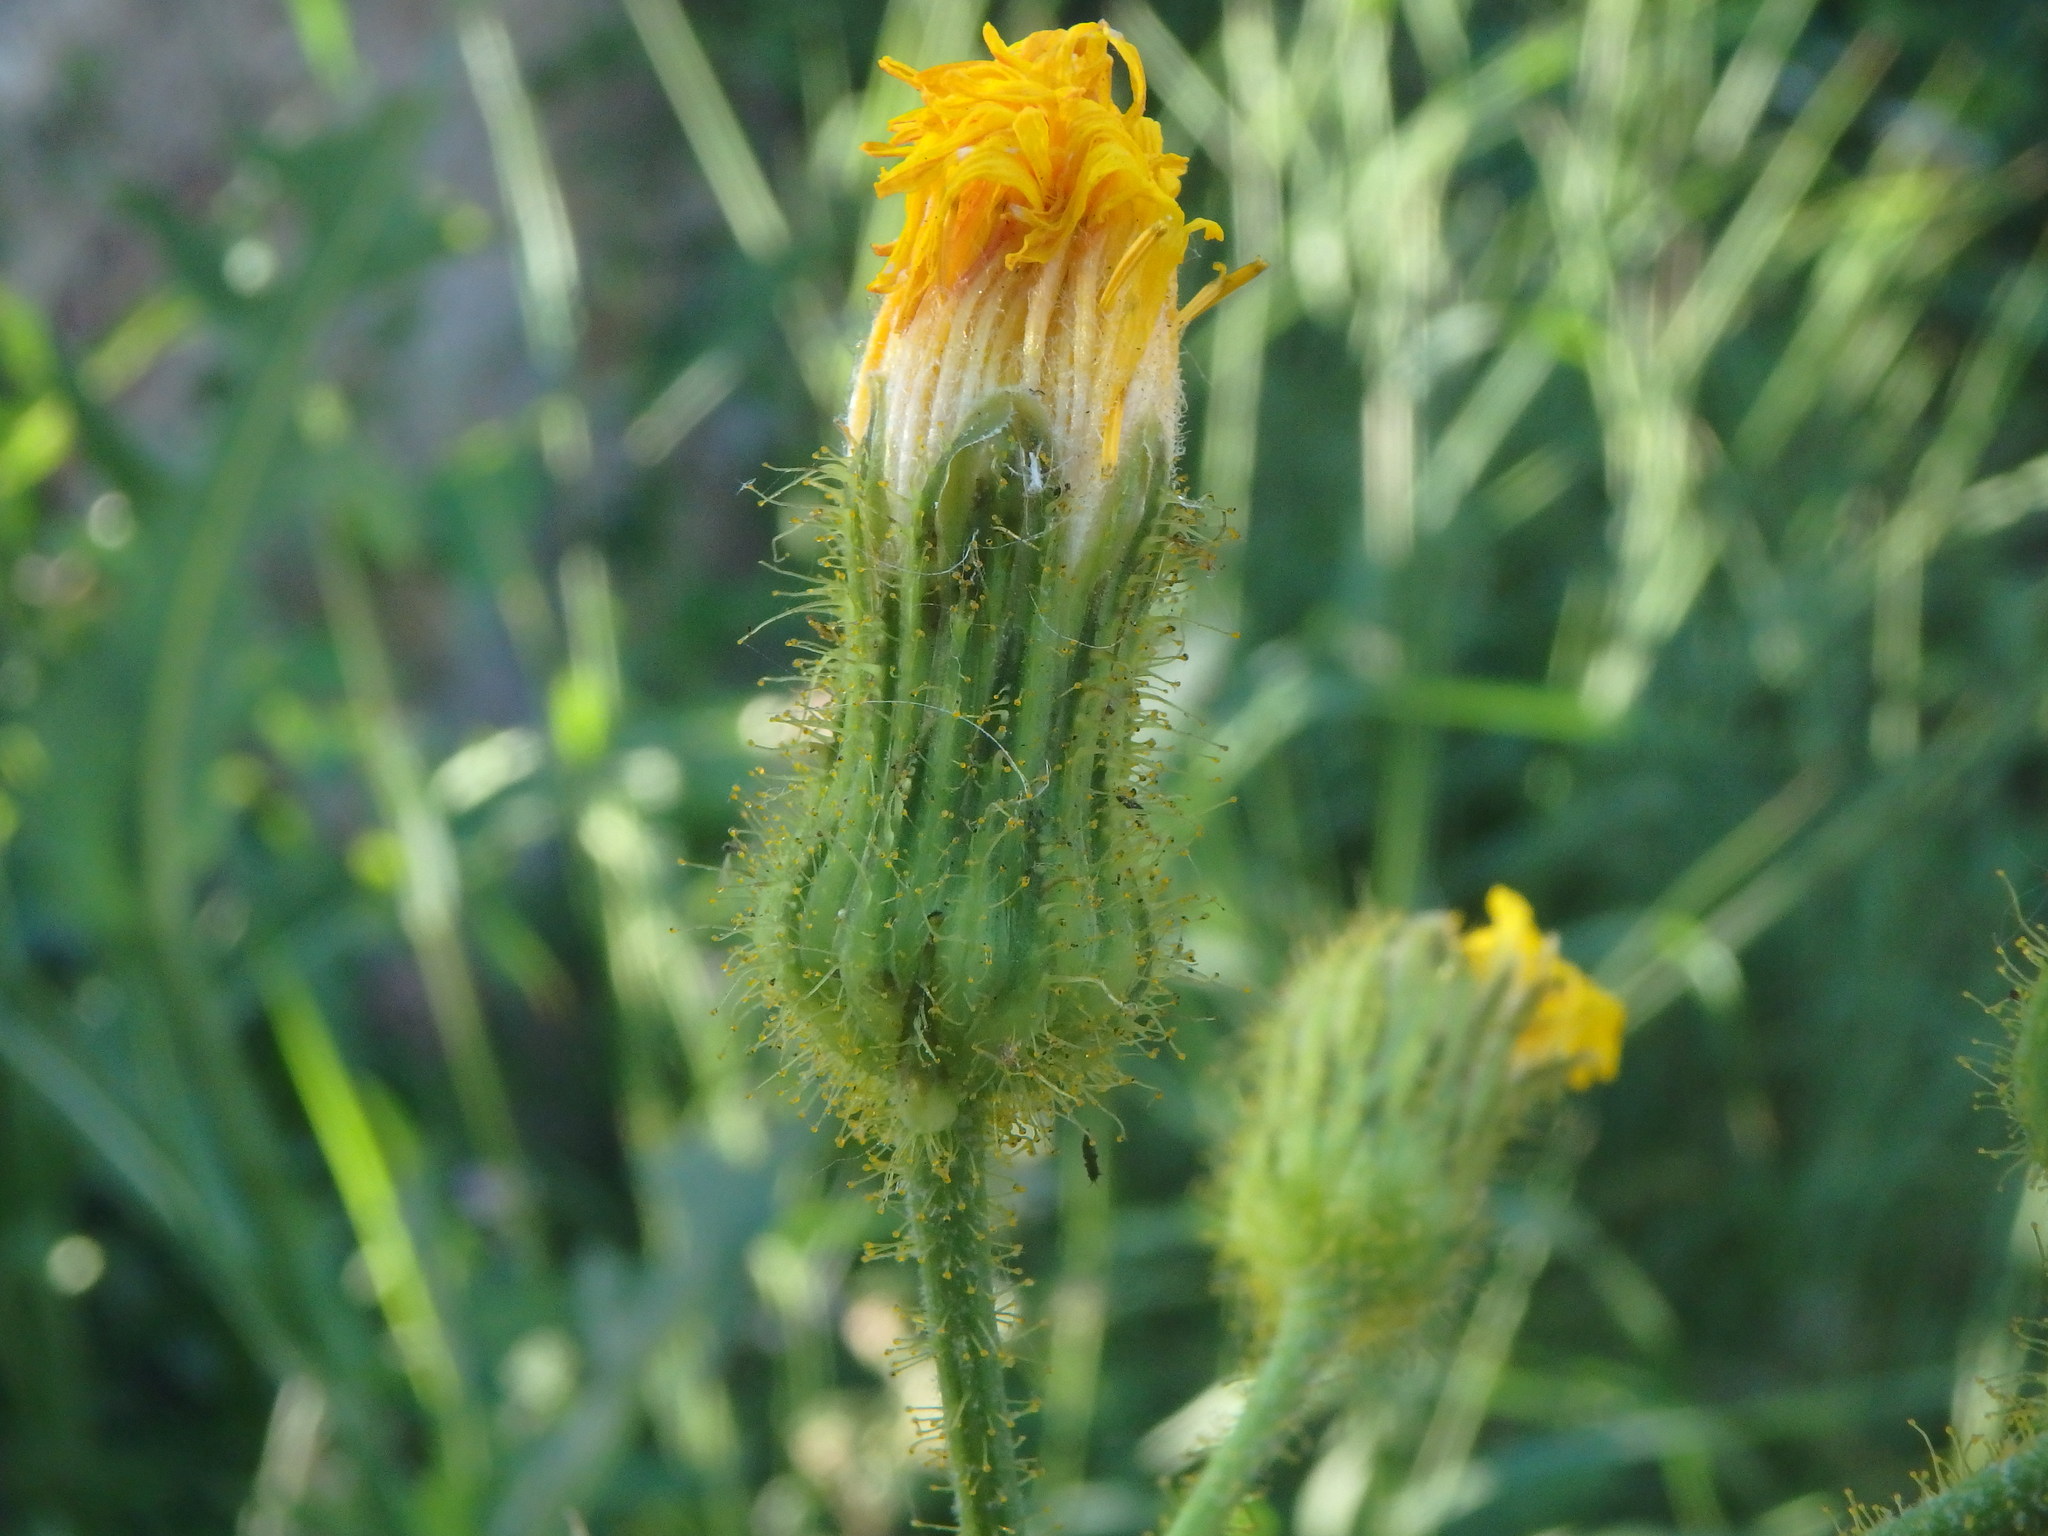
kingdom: Plantae
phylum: Tracheophyta
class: Magnoliopsida
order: Asterales
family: Asteraceae
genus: Sonchus
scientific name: Sonchus arvensis
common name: Perennial sow-thistle
